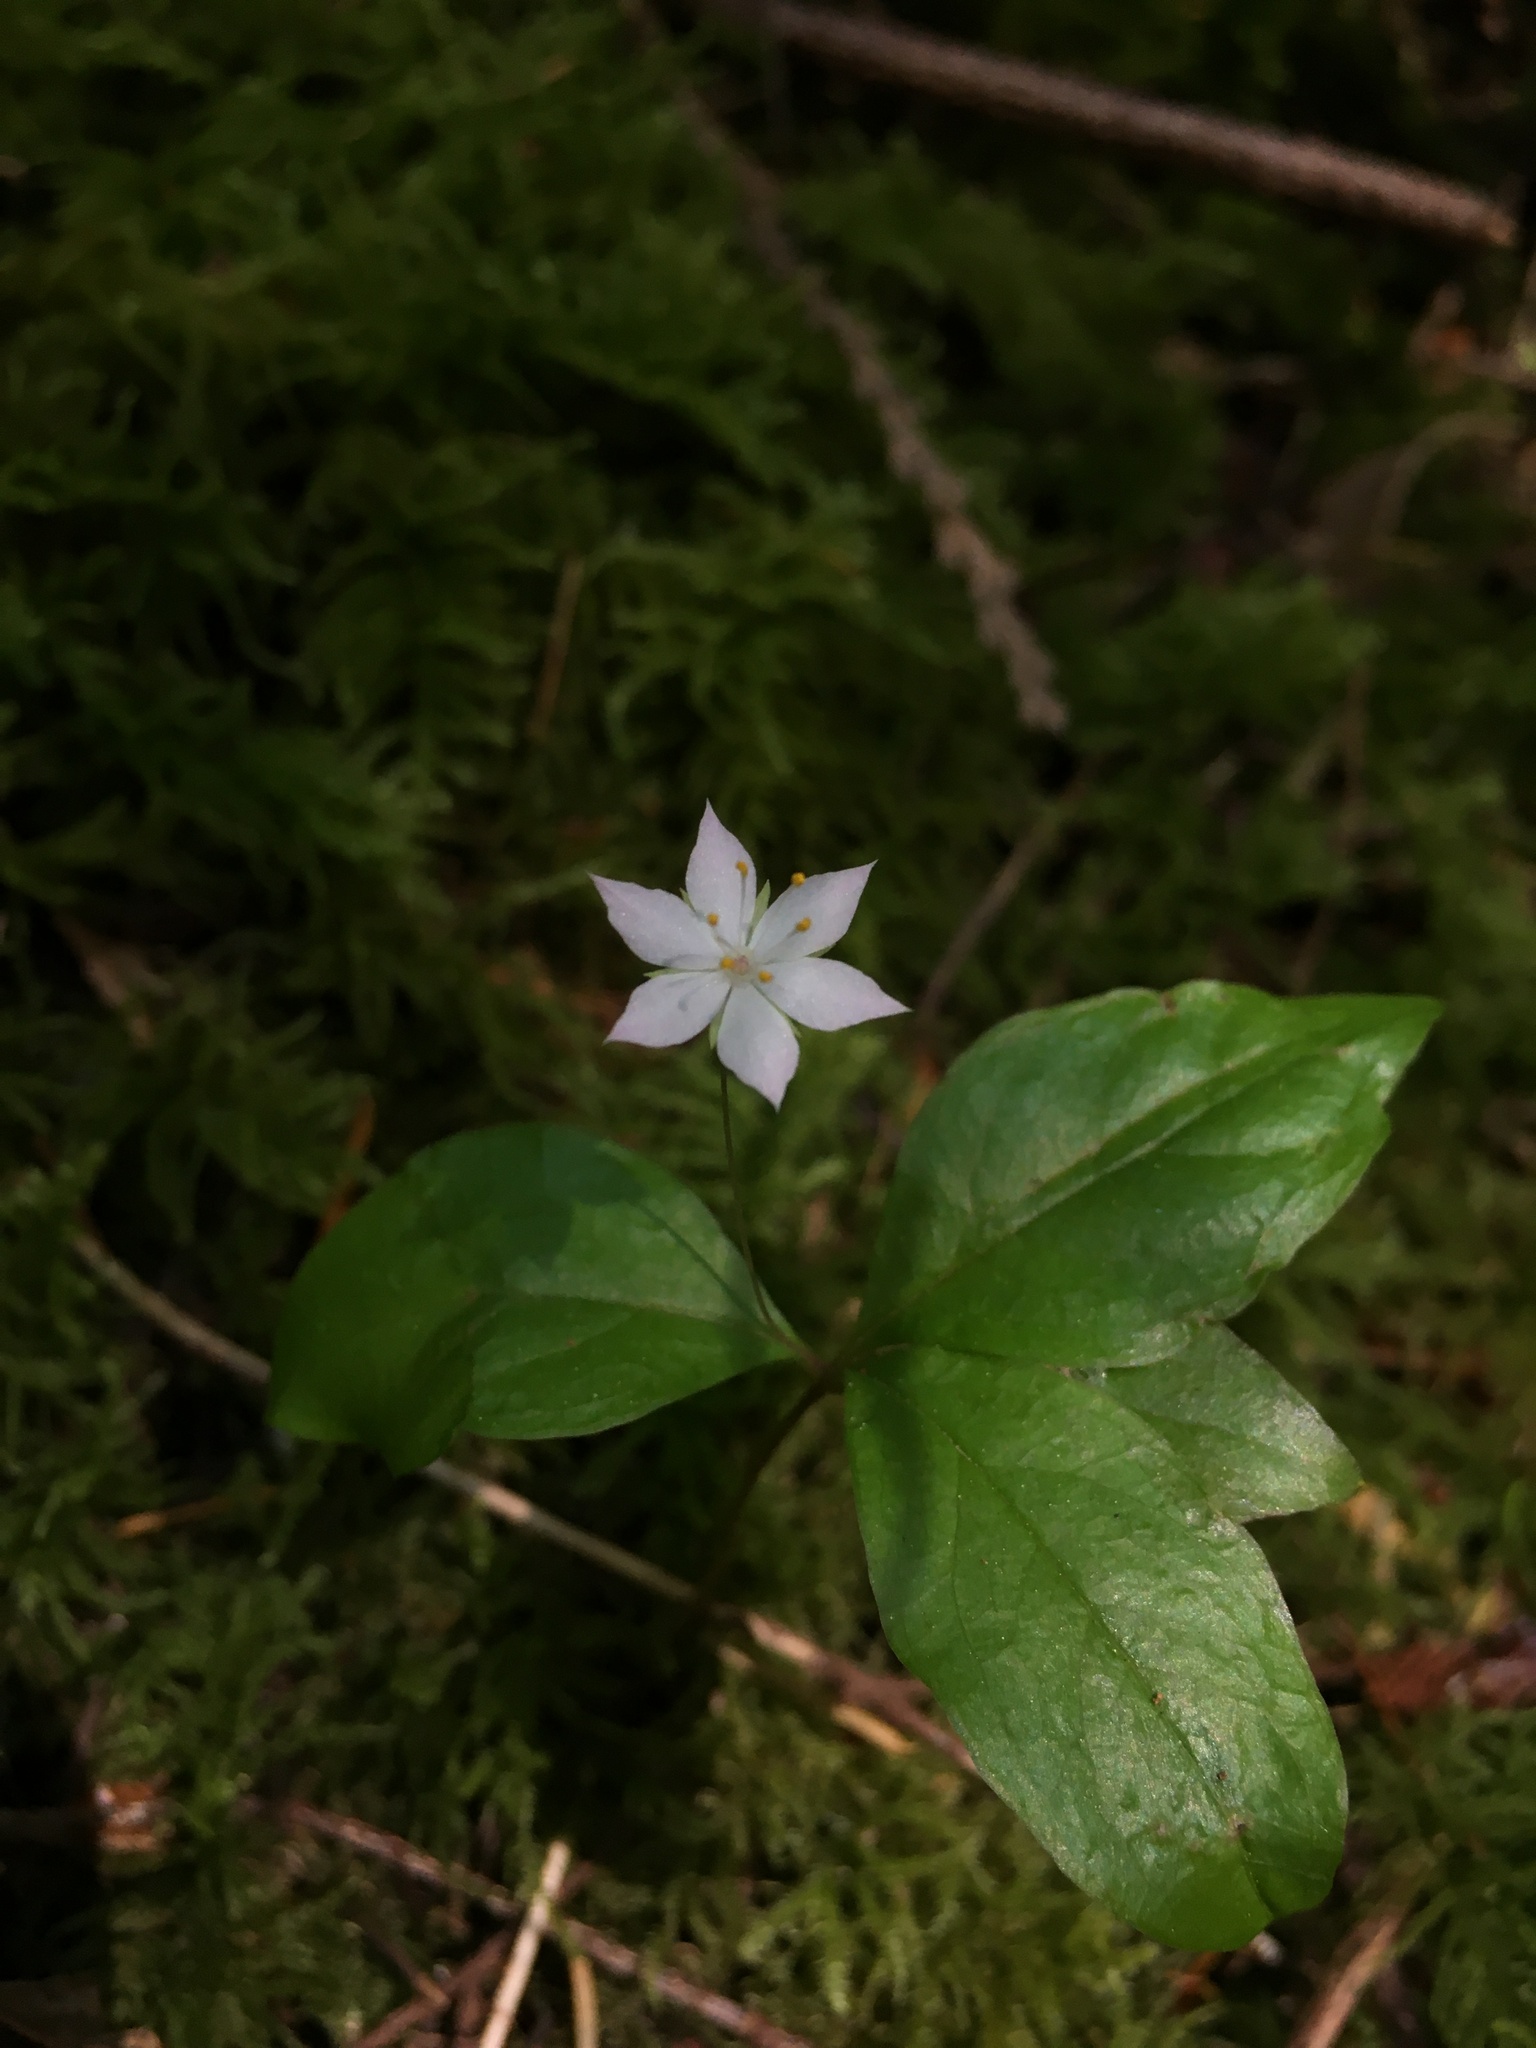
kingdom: Plantae
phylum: Tracheophyta
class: Magnoliopsida
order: Ericales
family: Primulaceae
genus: Lysimachia
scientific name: Lysimachia latifolia
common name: Pacific starflower
